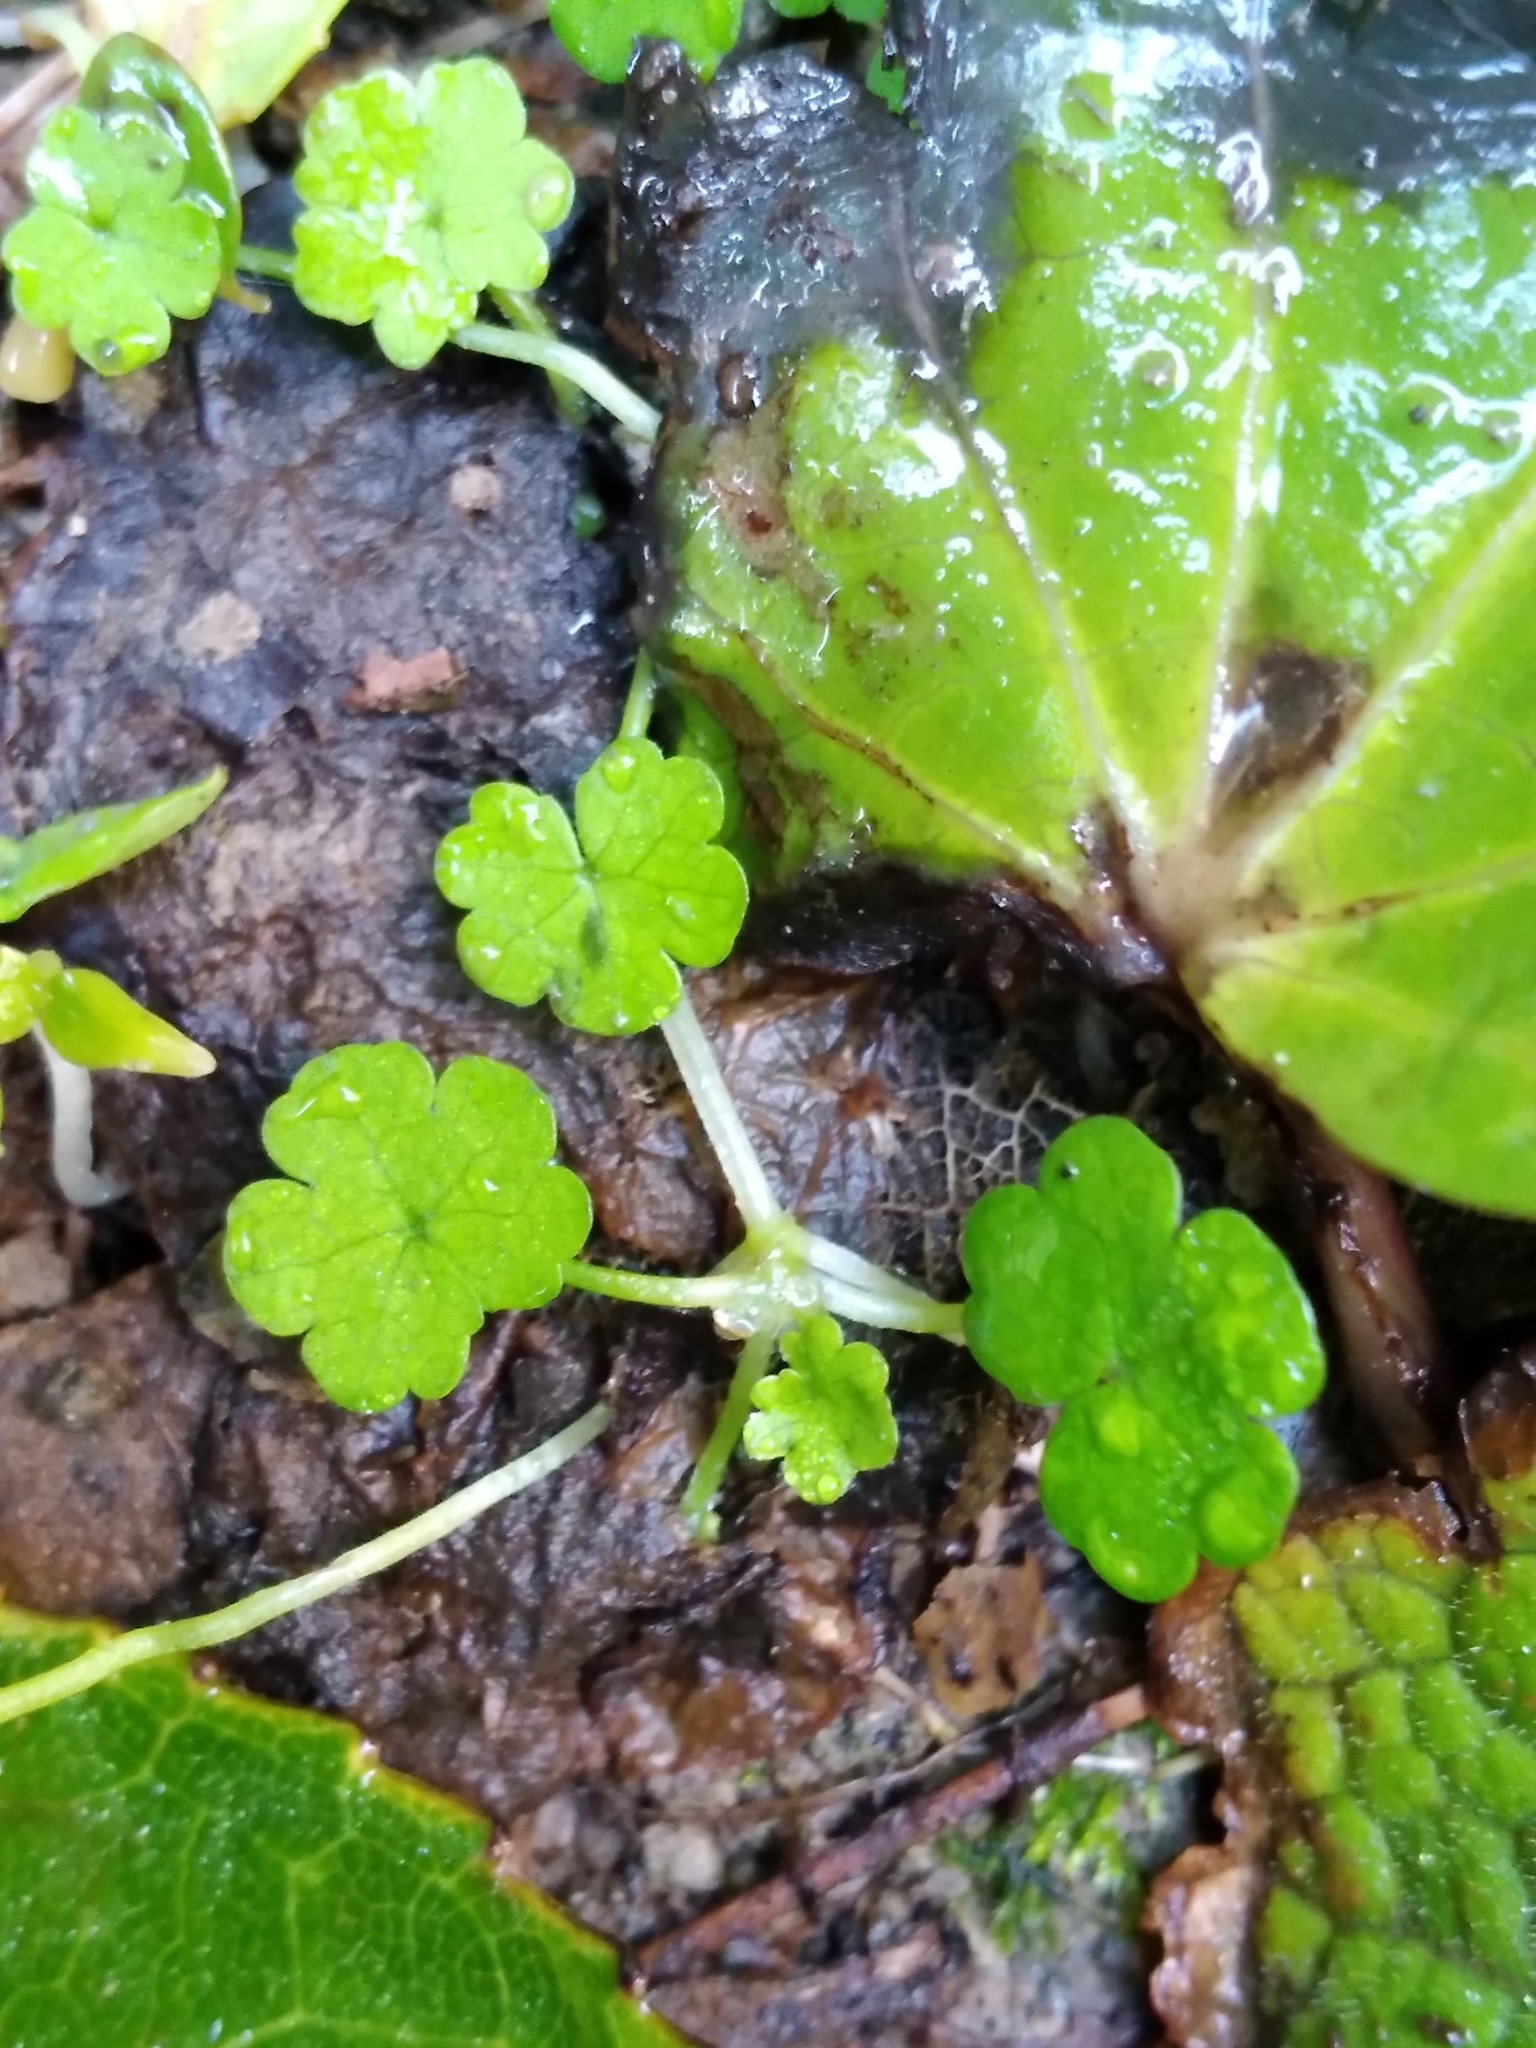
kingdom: Plantae
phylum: Tracheophyta
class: Magnoliopsida
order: Apiales
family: Araliaceae
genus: Hydrocotyle
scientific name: Hydrocotyle heteromeria
